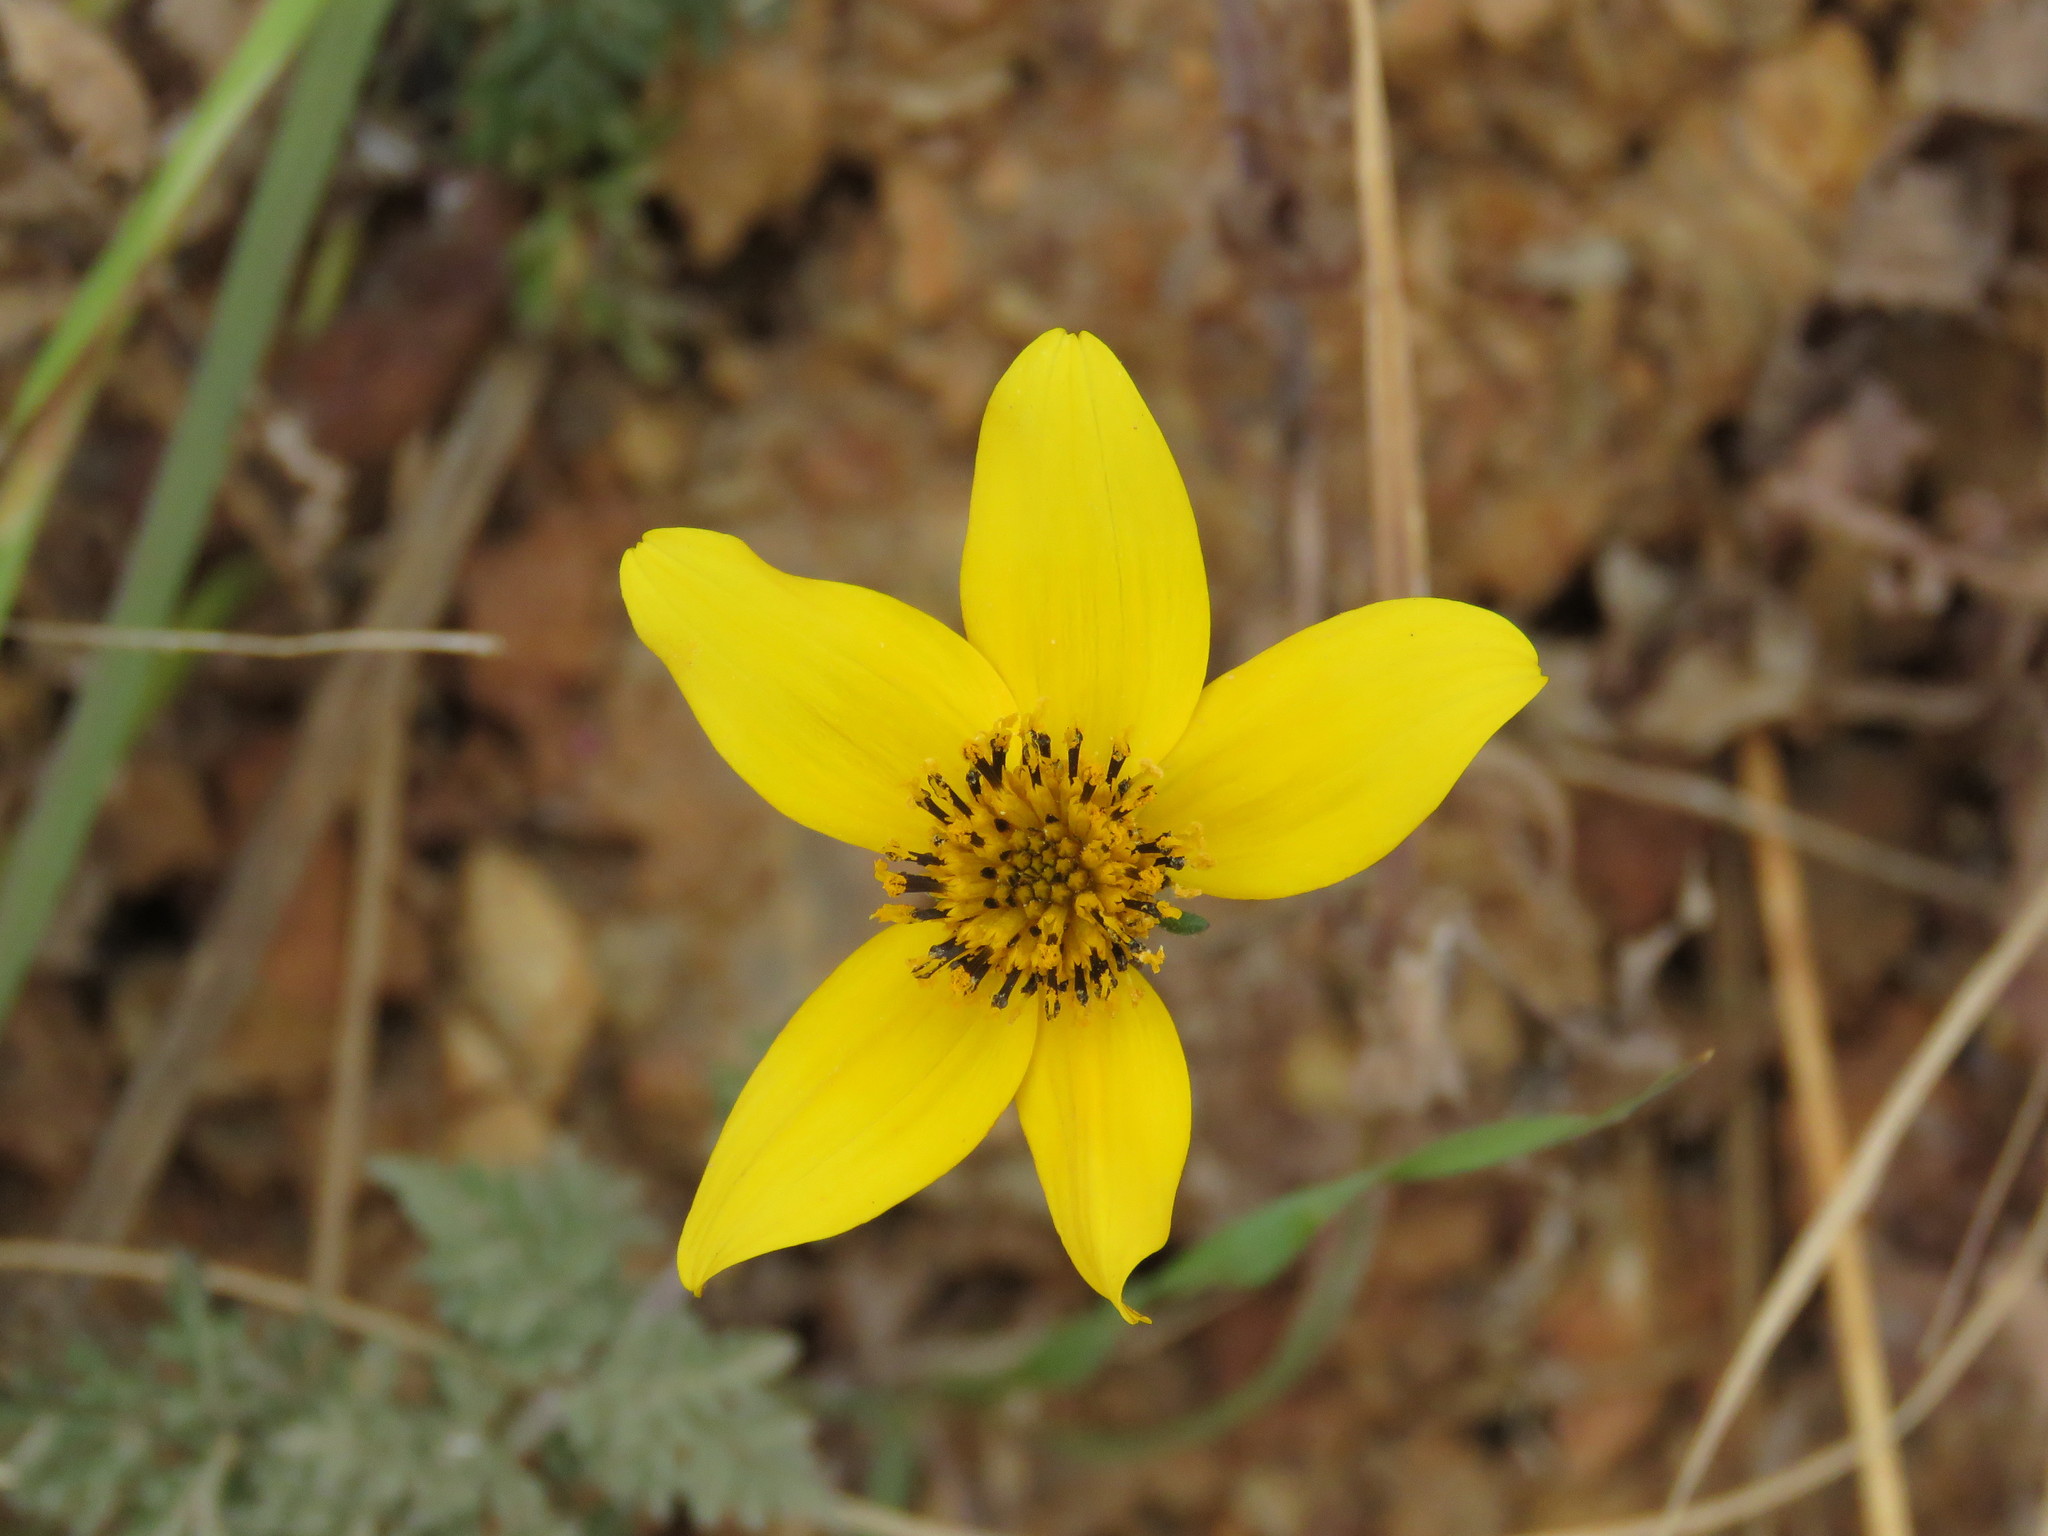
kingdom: Plantae
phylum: Tracheophyta
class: Magnoliopsida
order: Asterales
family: Asteraceae
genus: Bidens
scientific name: Bidens triplinervia
